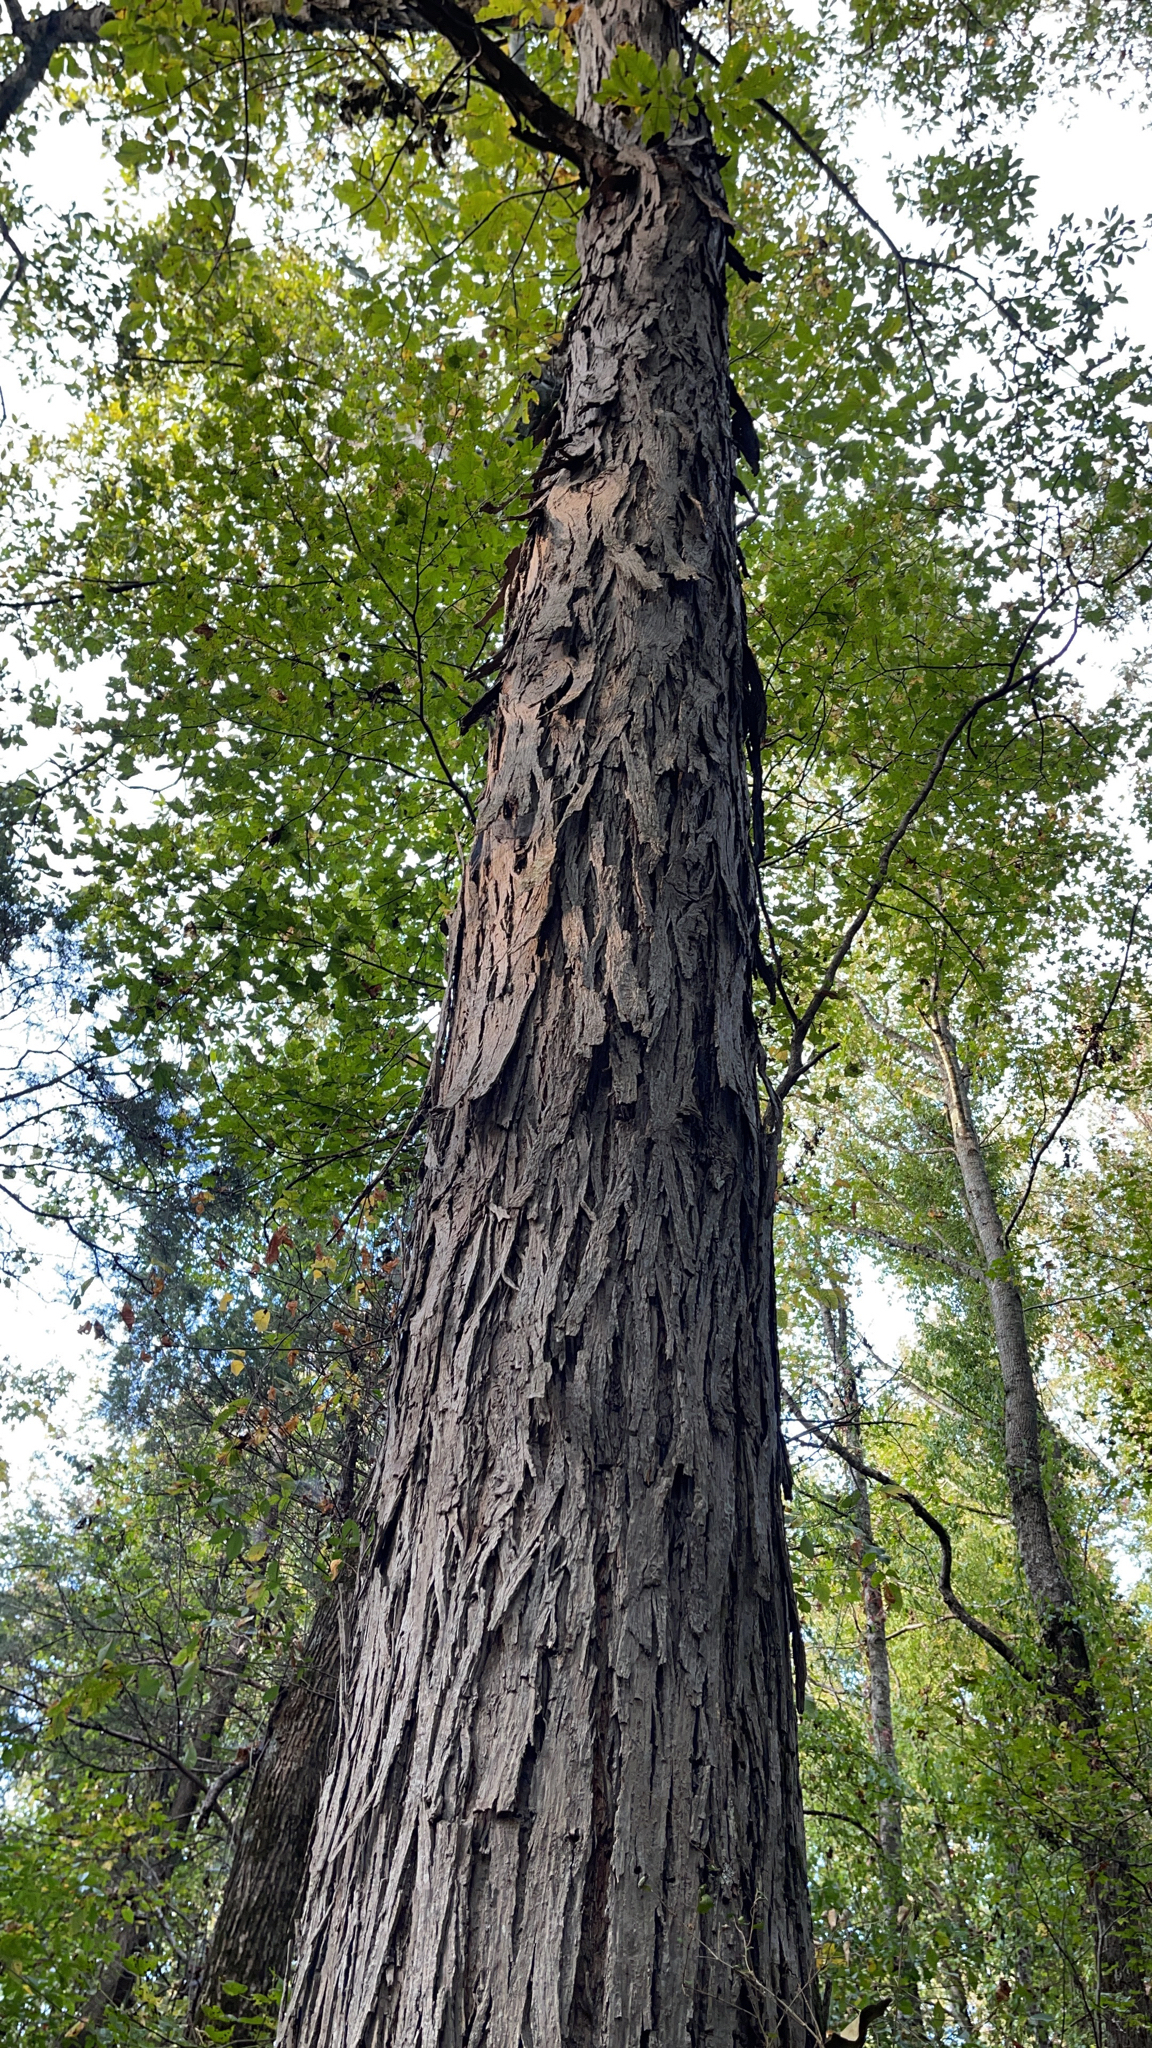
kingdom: Plantae
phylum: Tracheophyta
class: Magnoliopsida
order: Fagales
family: Juglandaceae
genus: Carya
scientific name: Carya ovata
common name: Shagbark hickory
